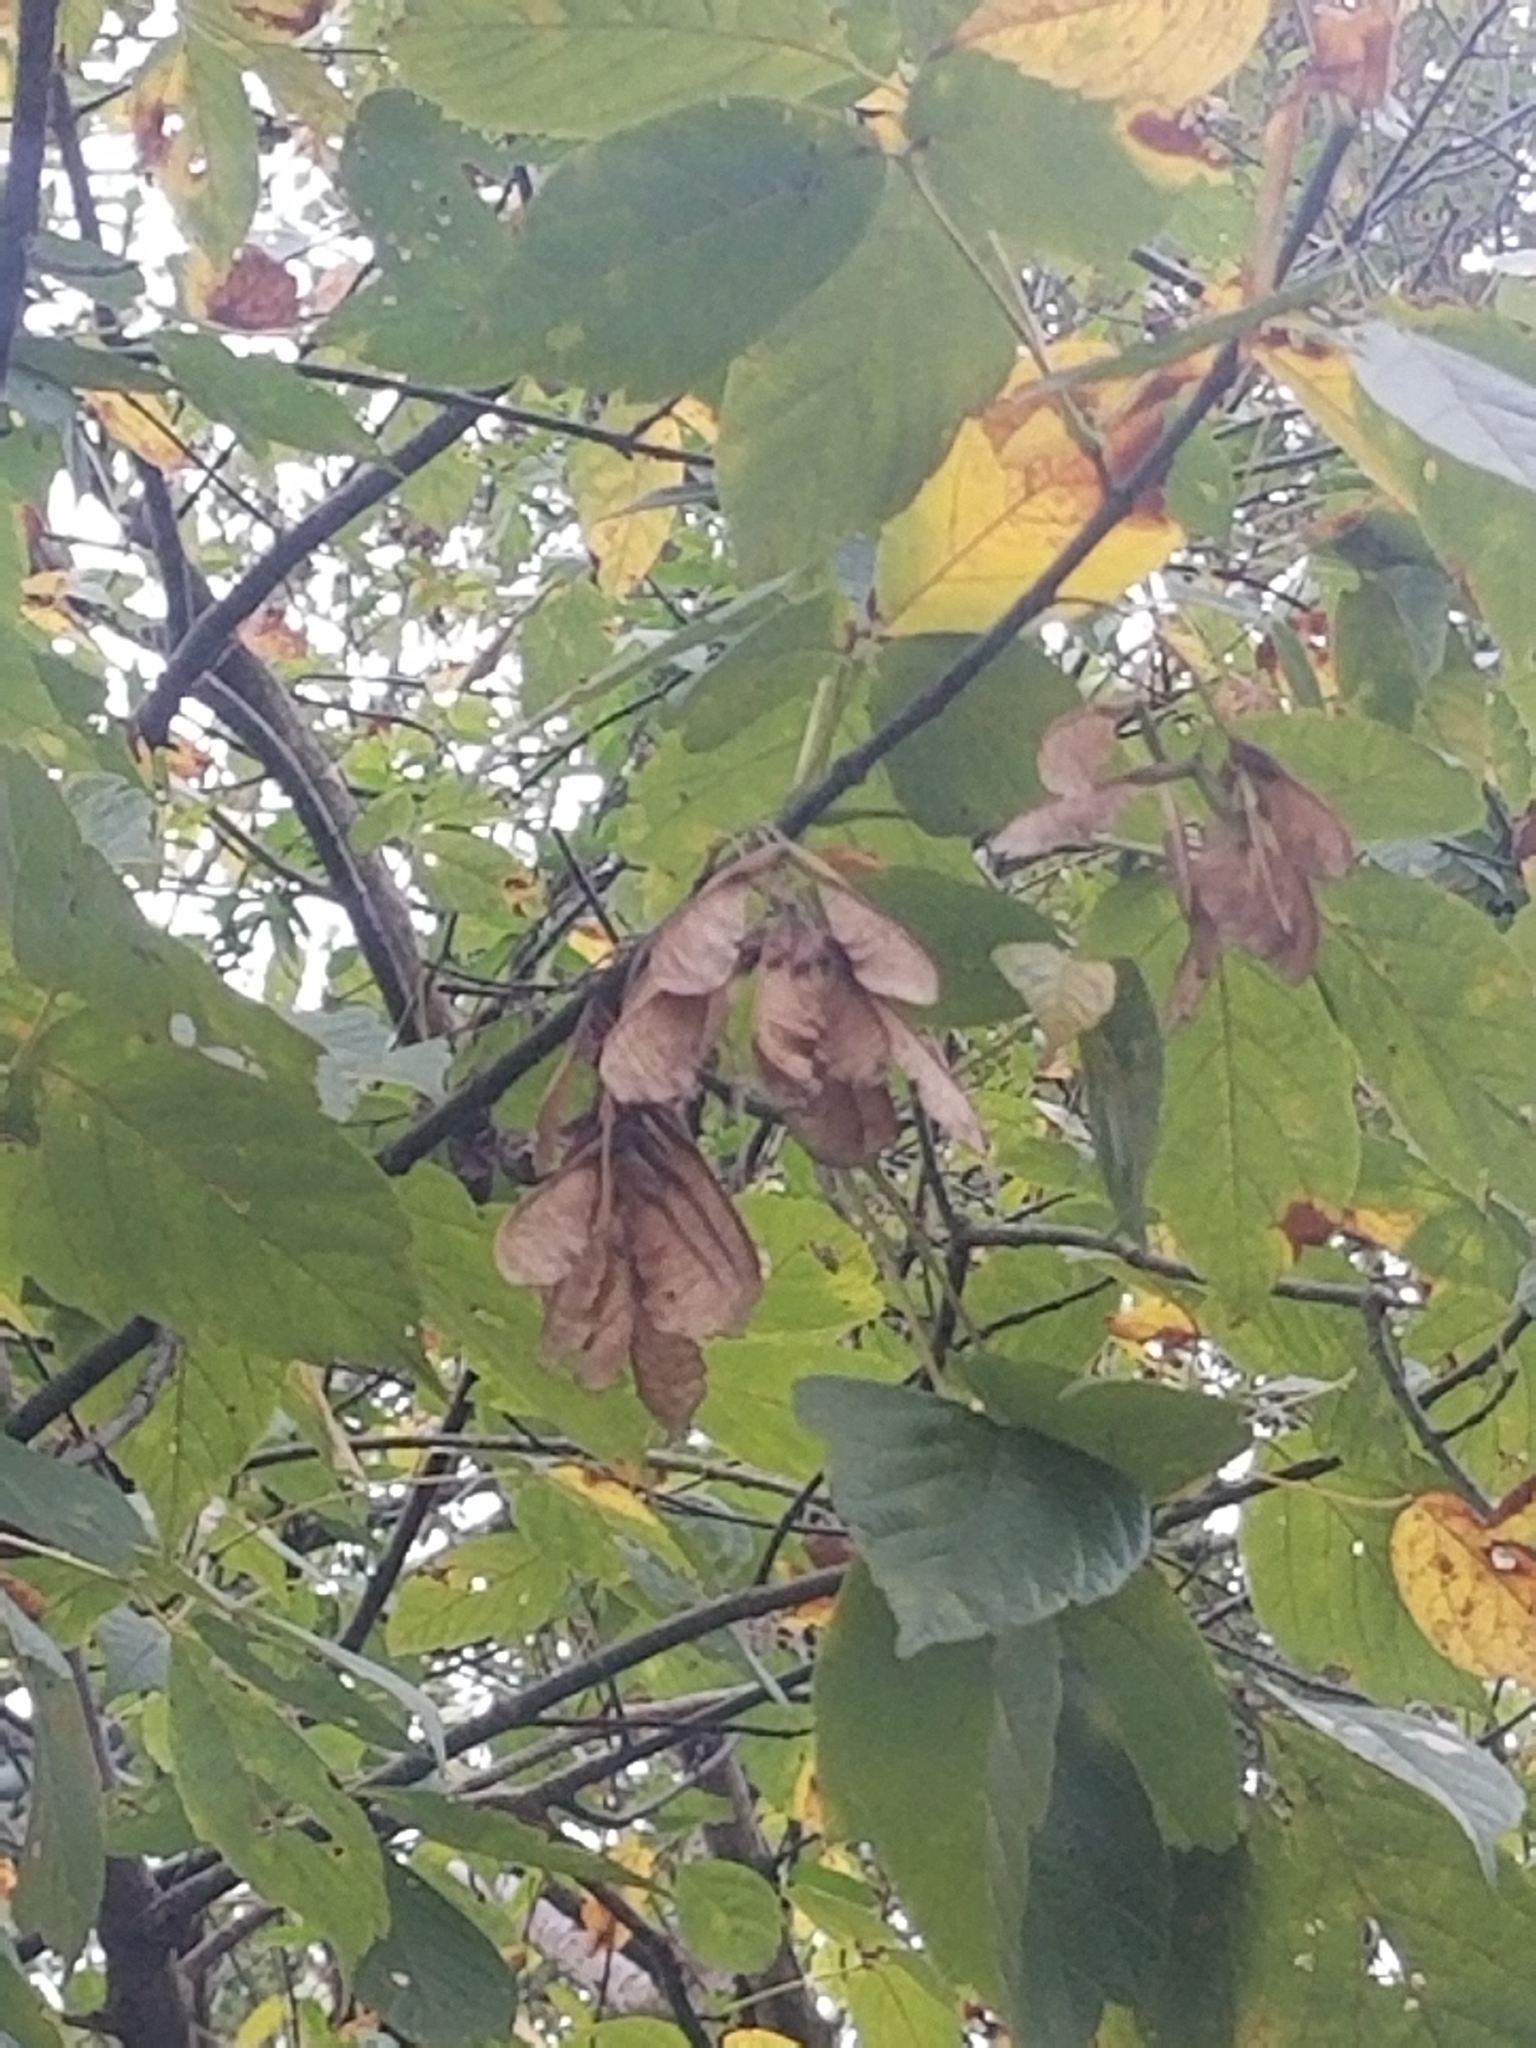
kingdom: Plantae
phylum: Tracheophyta
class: Magnoliopsida
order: Sapindales
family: Sapindaceae
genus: Acer
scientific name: Acer negundo
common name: Ashleaf maple
